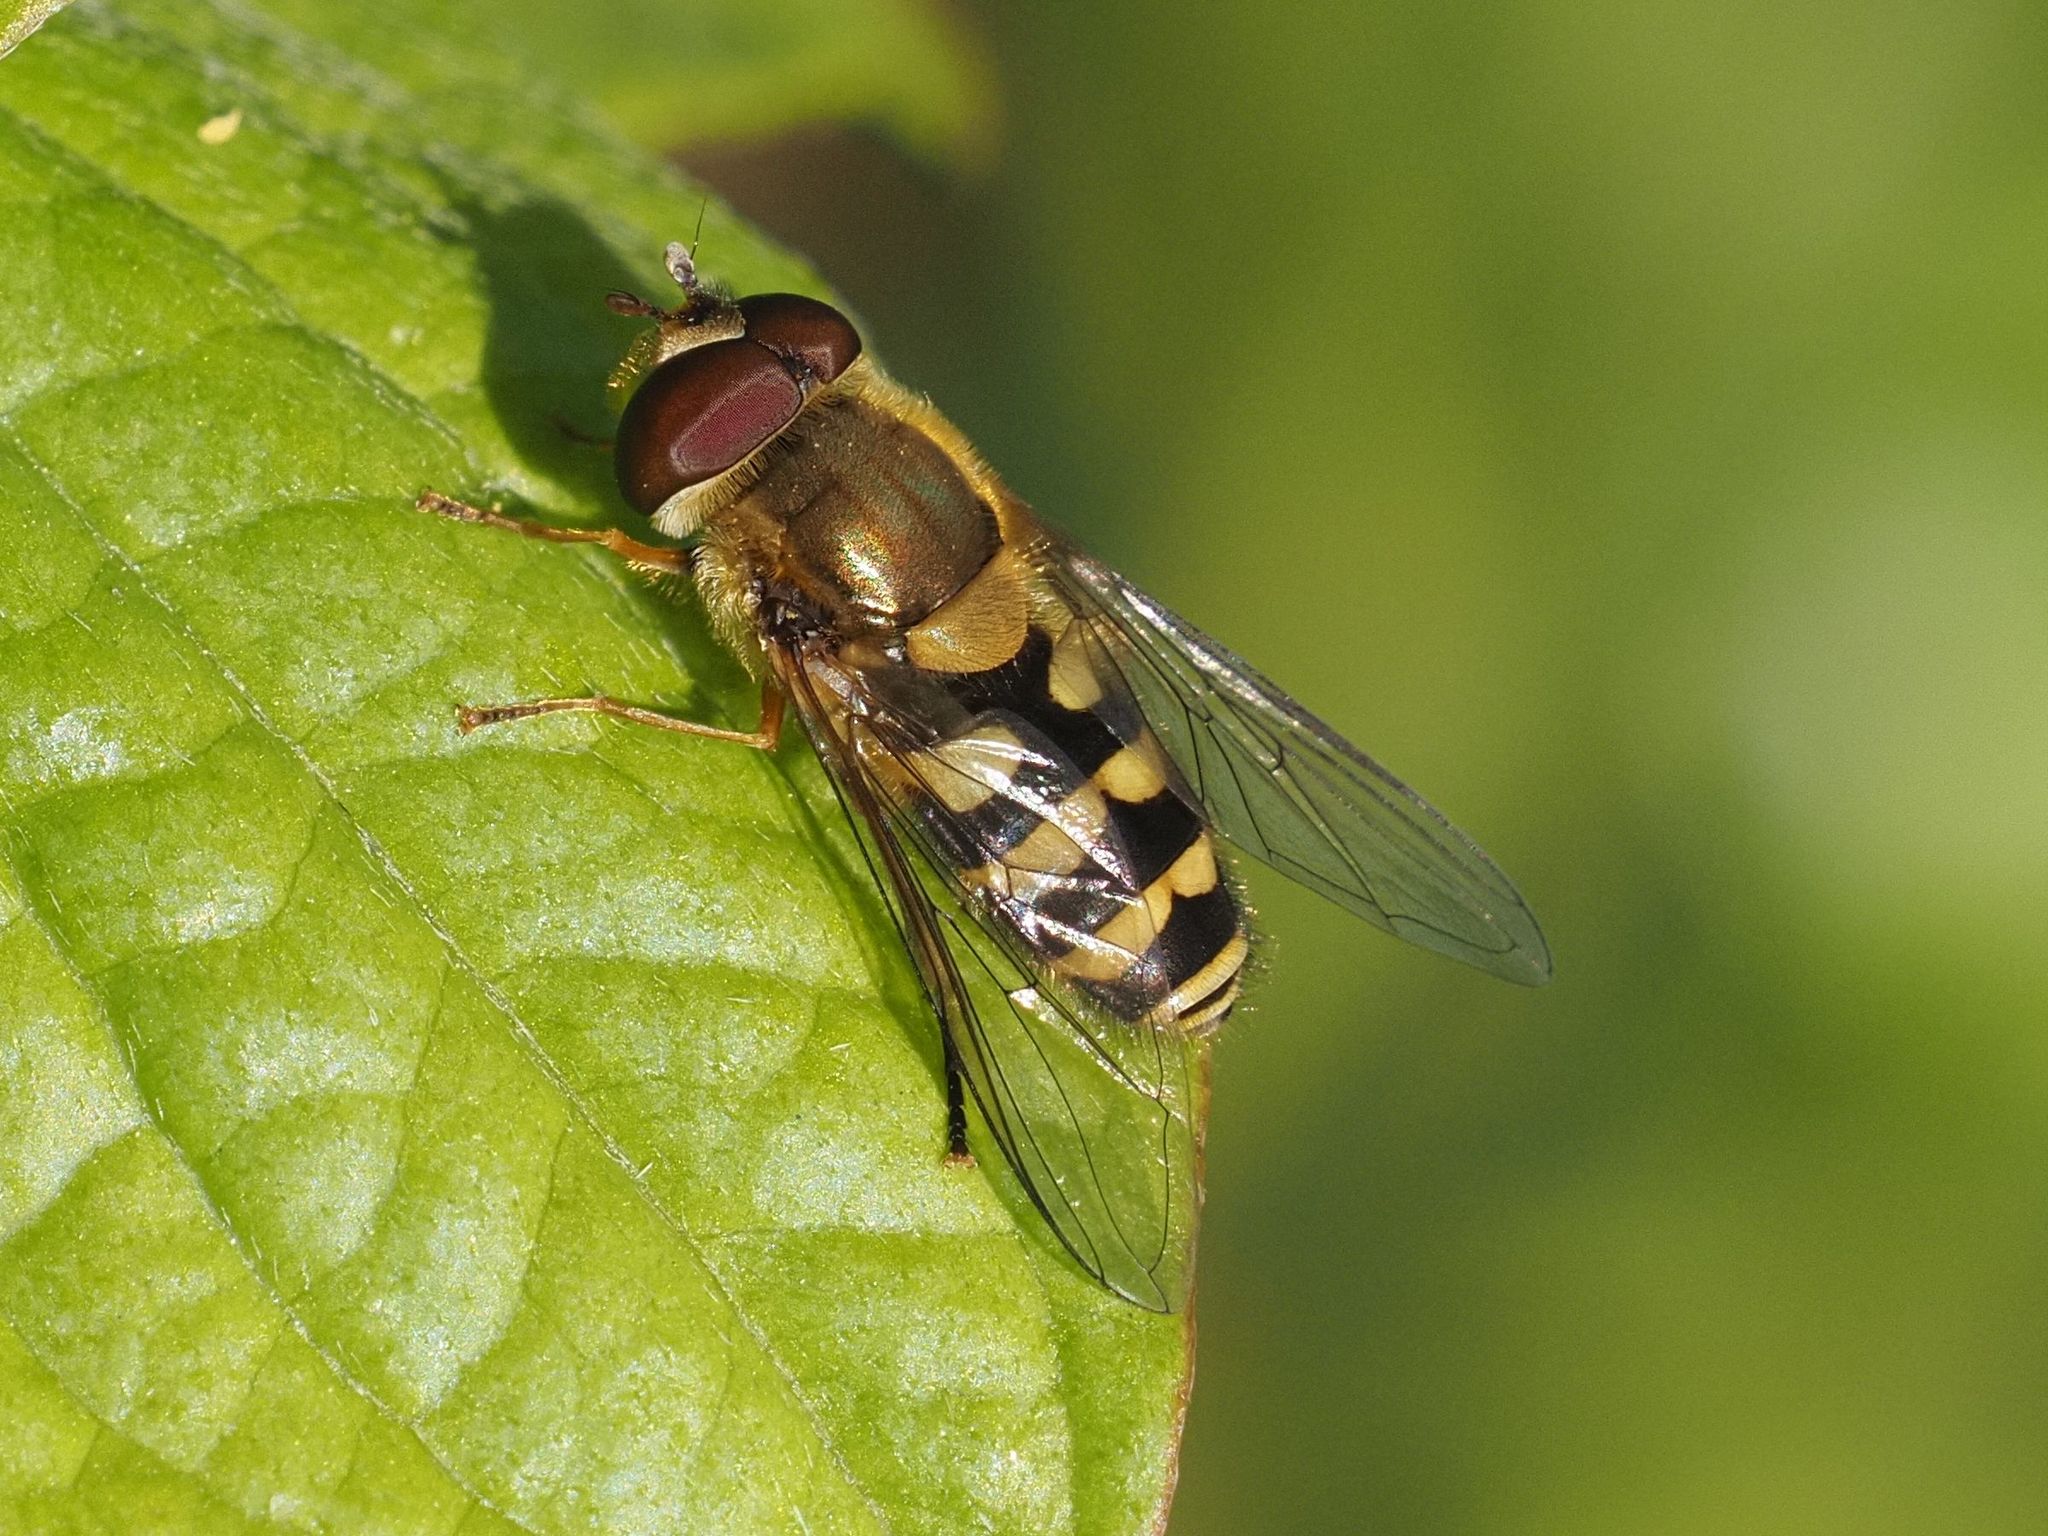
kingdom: Animalia
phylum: Arthropoda
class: Insecta
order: Diptera
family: Syrphidae
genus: Syrphus
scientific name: Syrphus
